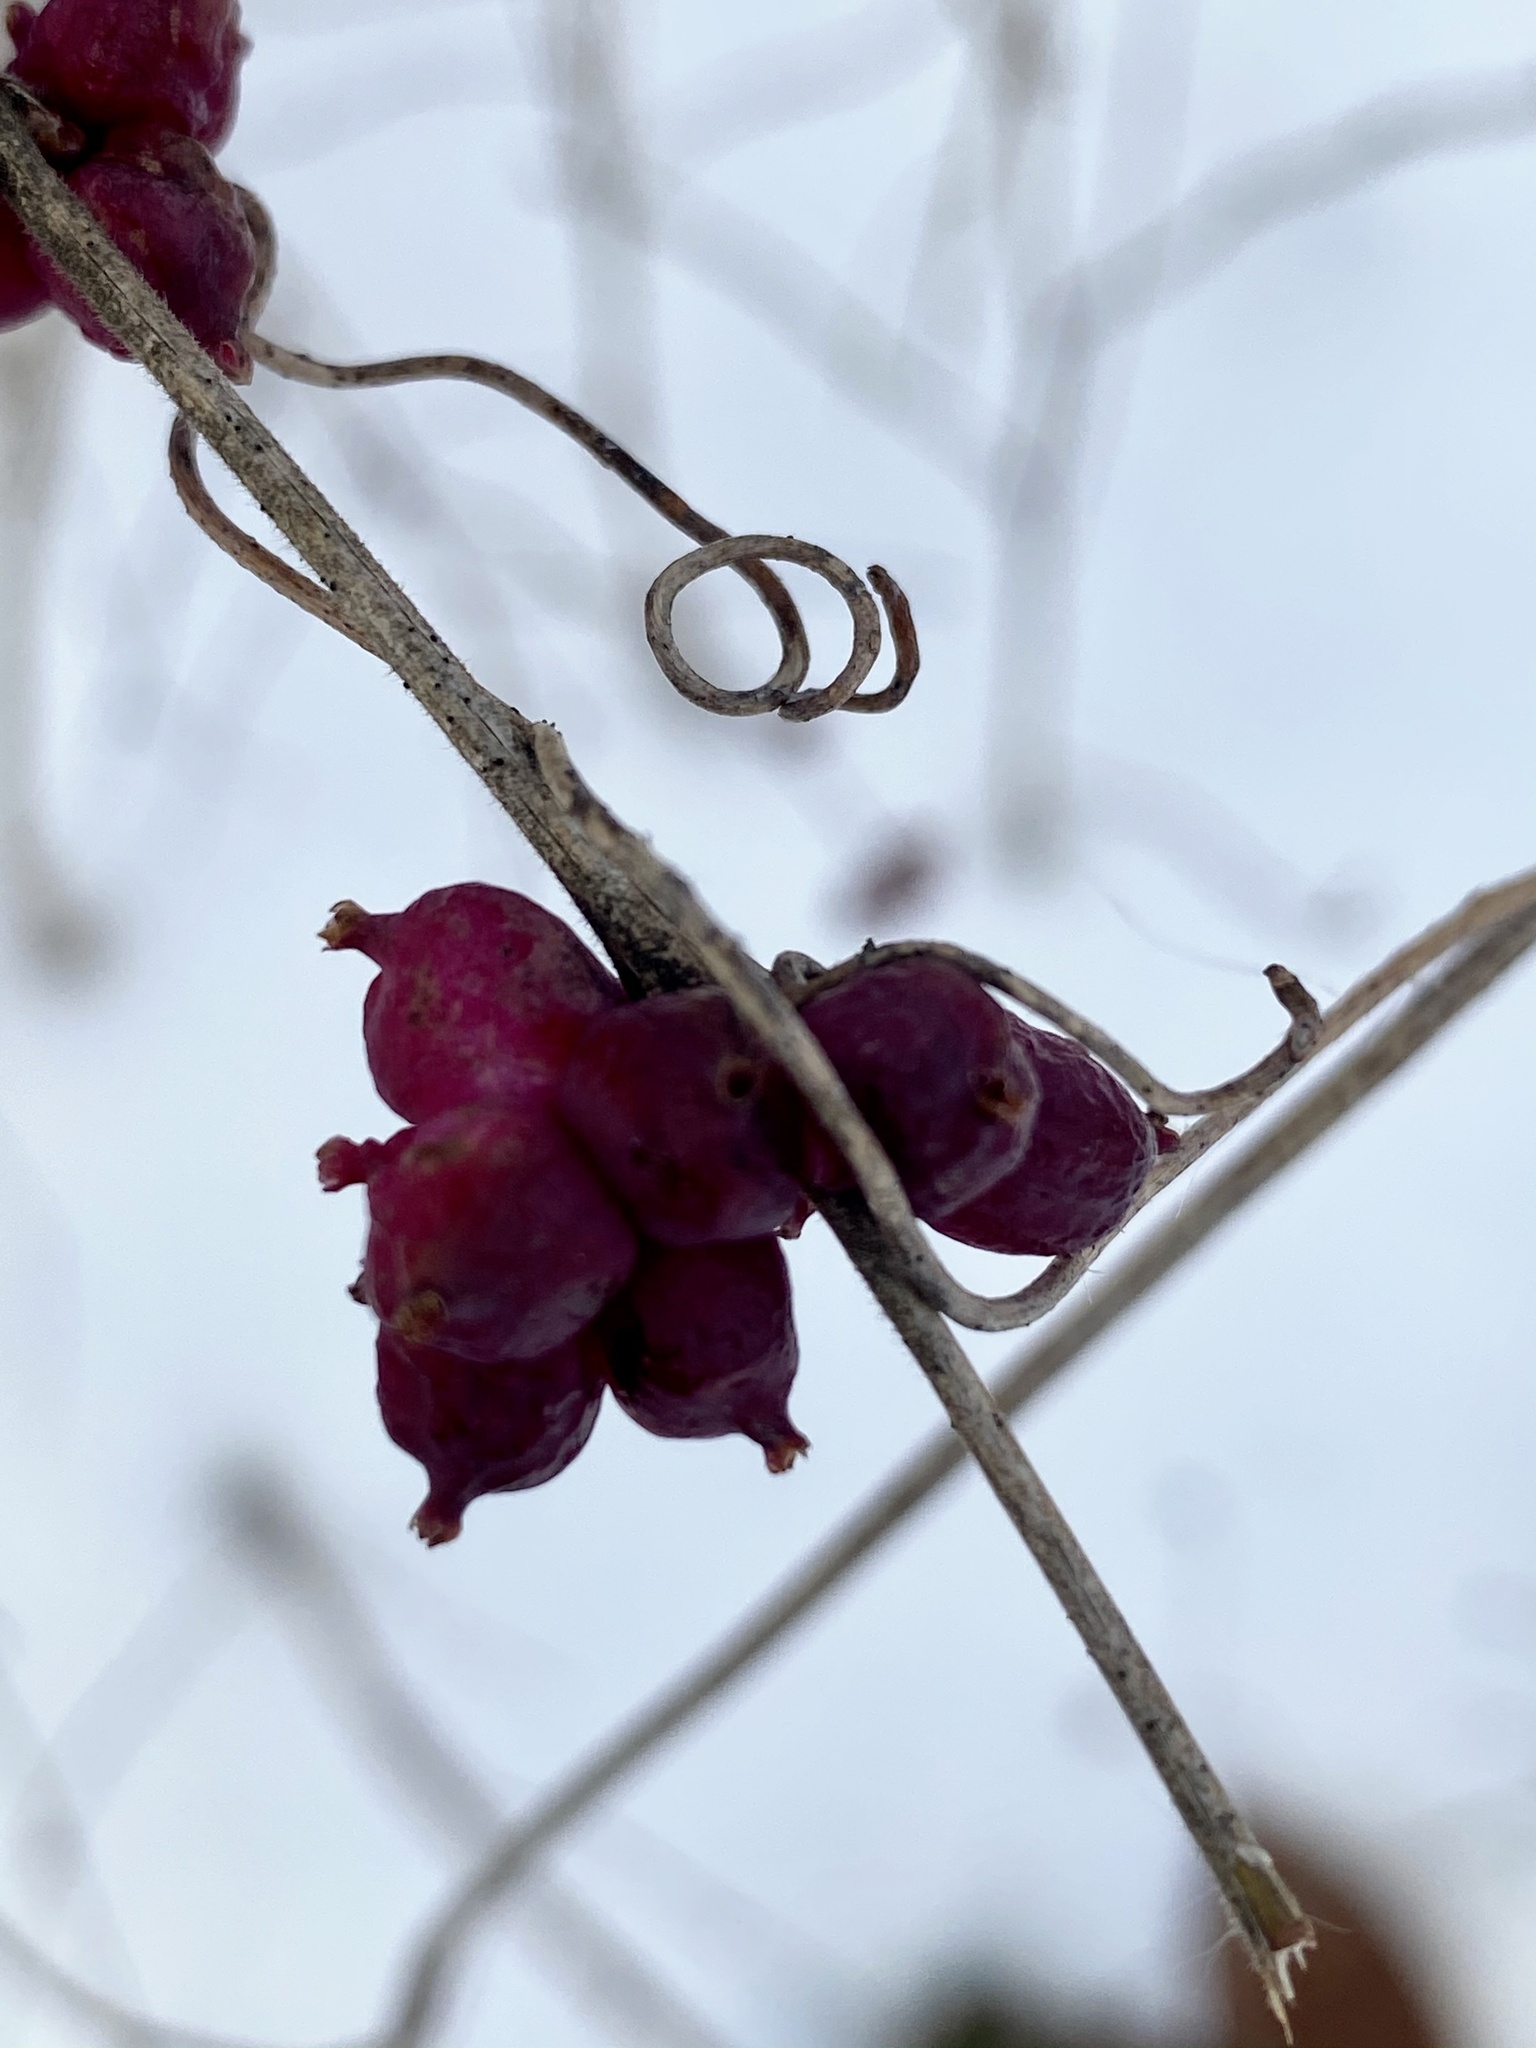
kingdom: Plantae
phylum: Tracheophyta
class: Magnoliopsida
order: Dipsacales
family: Caprifoliaceae
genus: Symphoricarpos
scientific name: Symphoricarpos orbiculatus
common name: Coralberry
